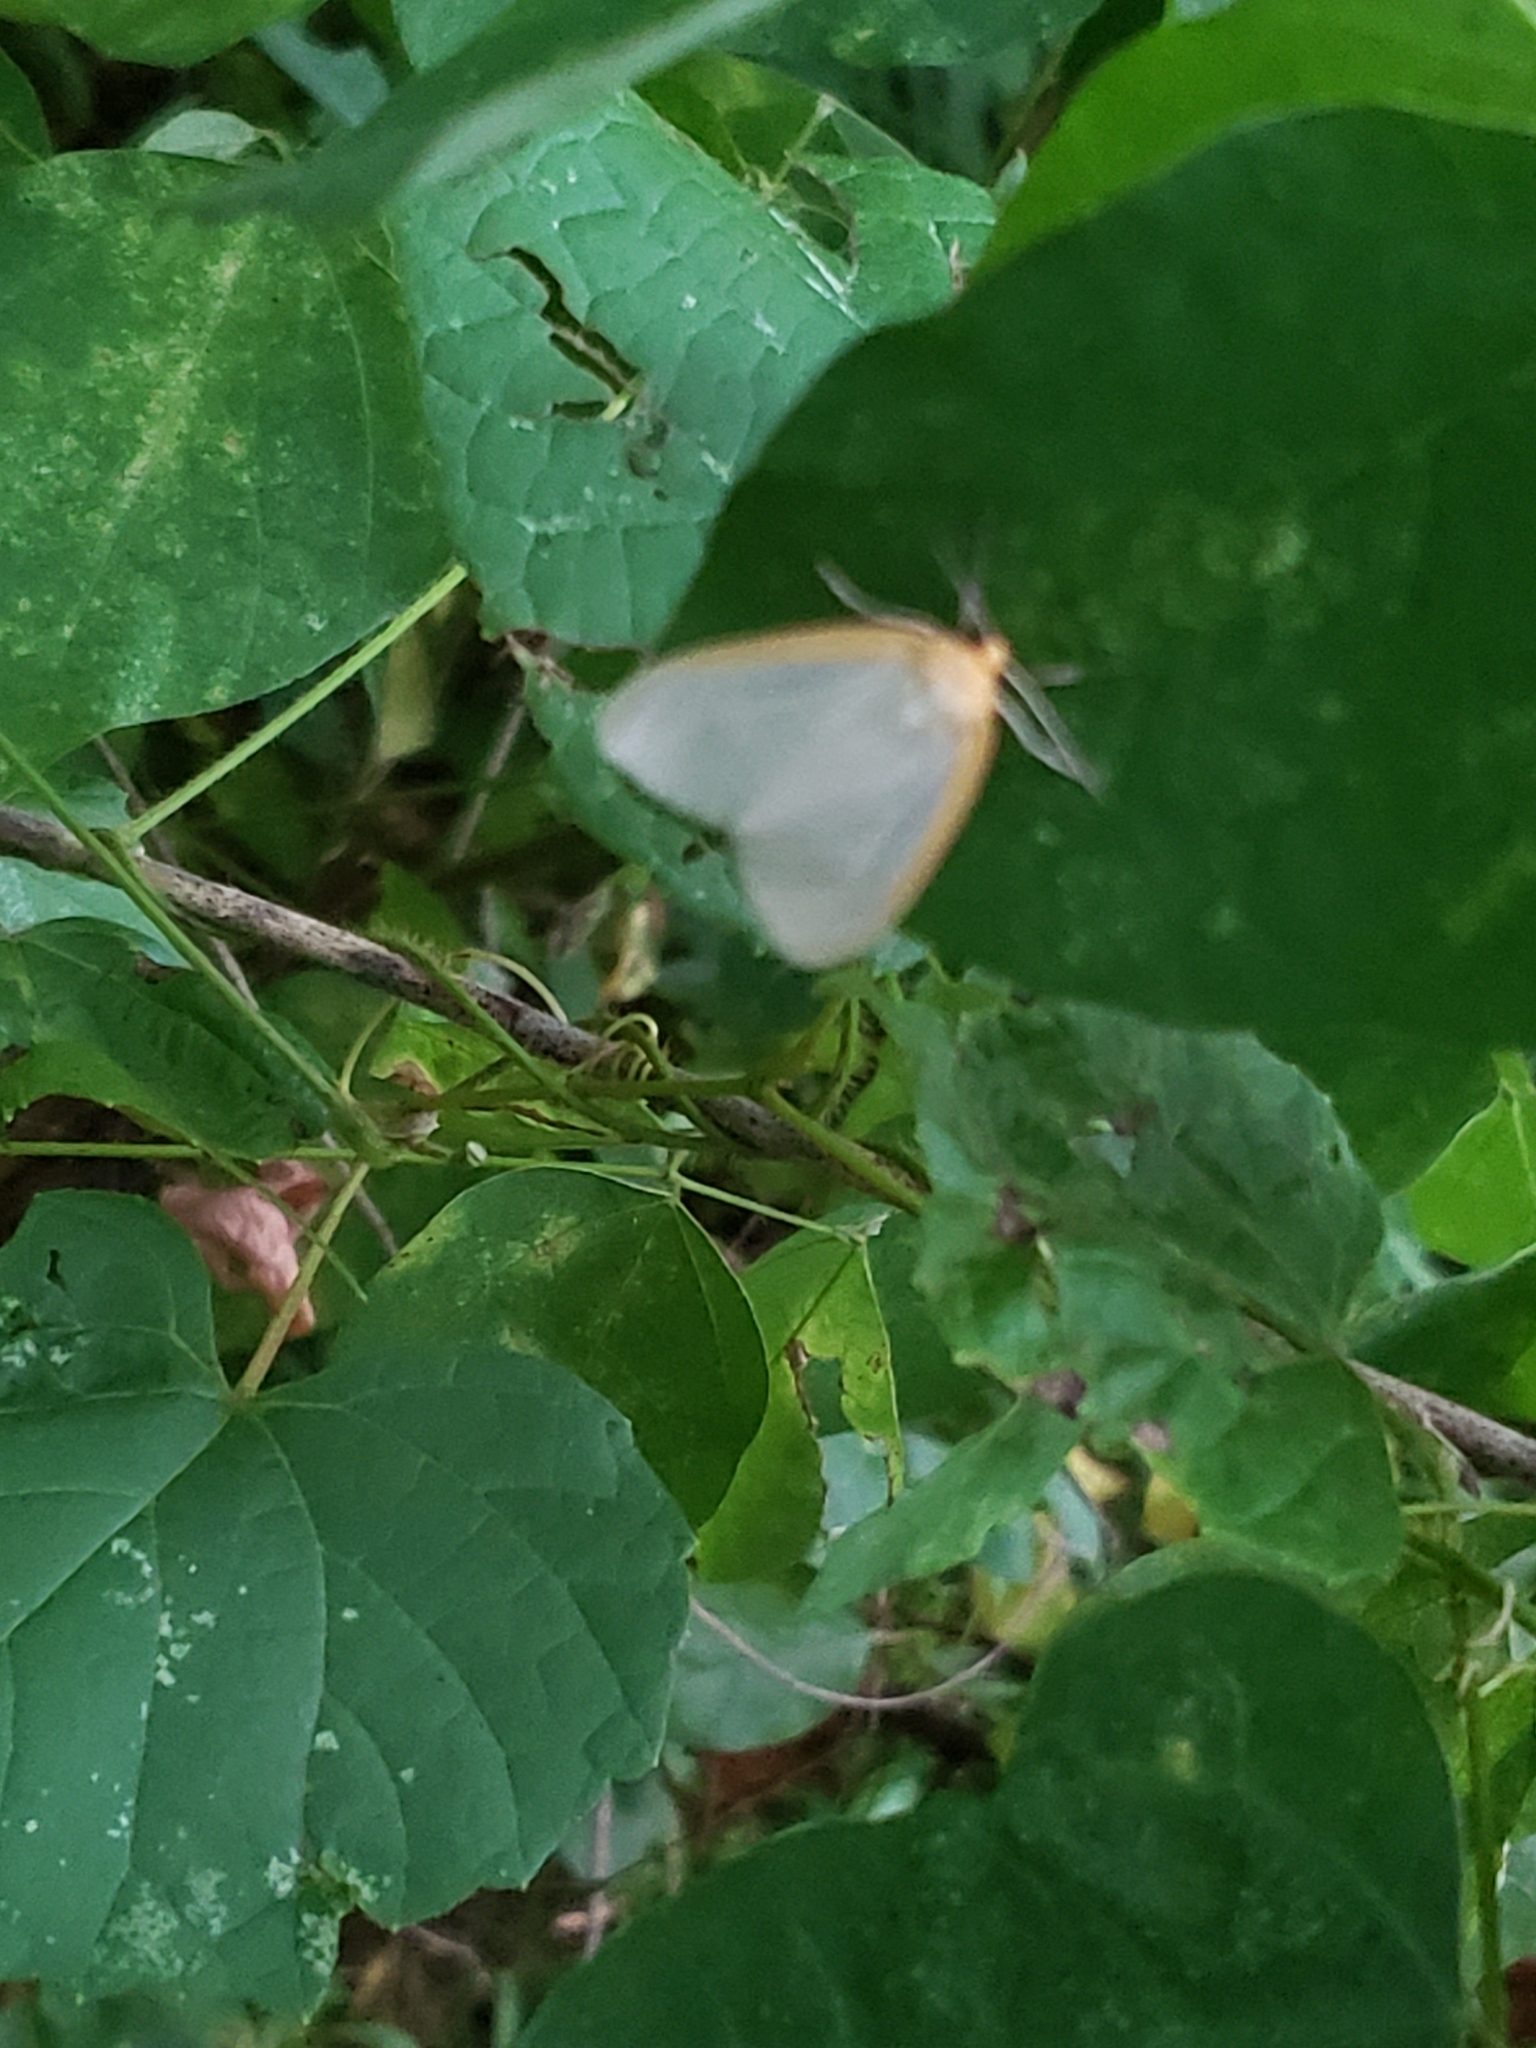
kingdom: Animalia
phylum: Arthropoda
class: Insecta
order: Lepidoptera
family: Erebidae
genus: Cycnia
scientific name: Cycnia tenera
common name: Delicate cycnia moth
